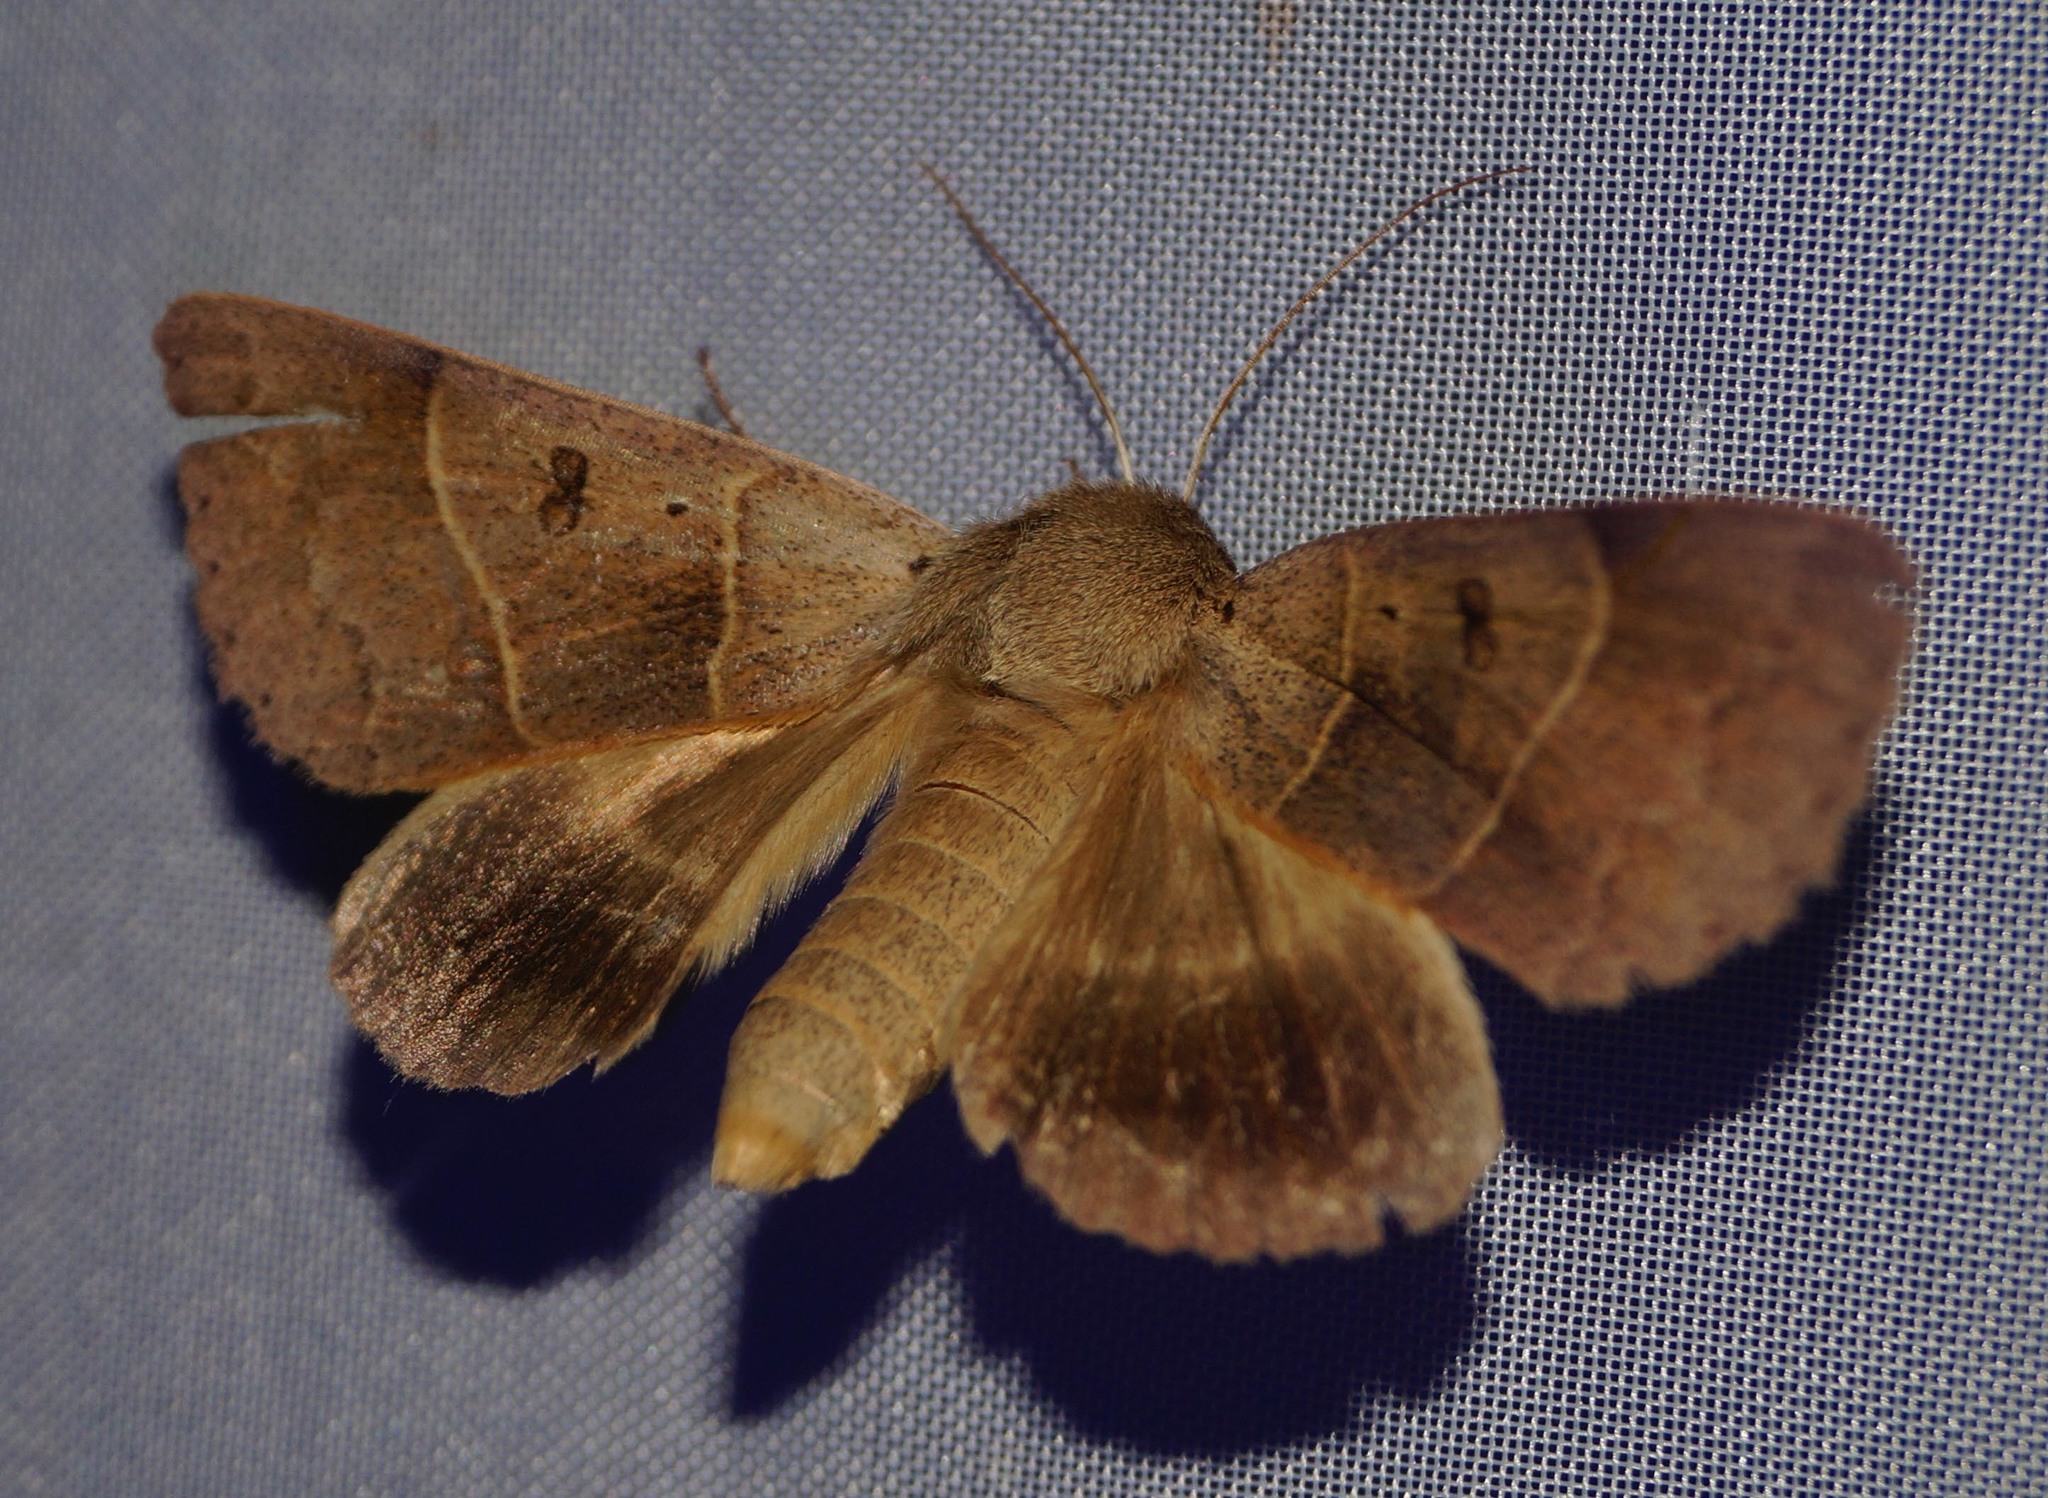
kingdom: Animalia
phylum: Arthropoda
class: Insecta
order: Lepidoptera
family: Erebidae
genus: Minucia
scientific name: Minucia lunaris
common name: Lunar double-stripe
